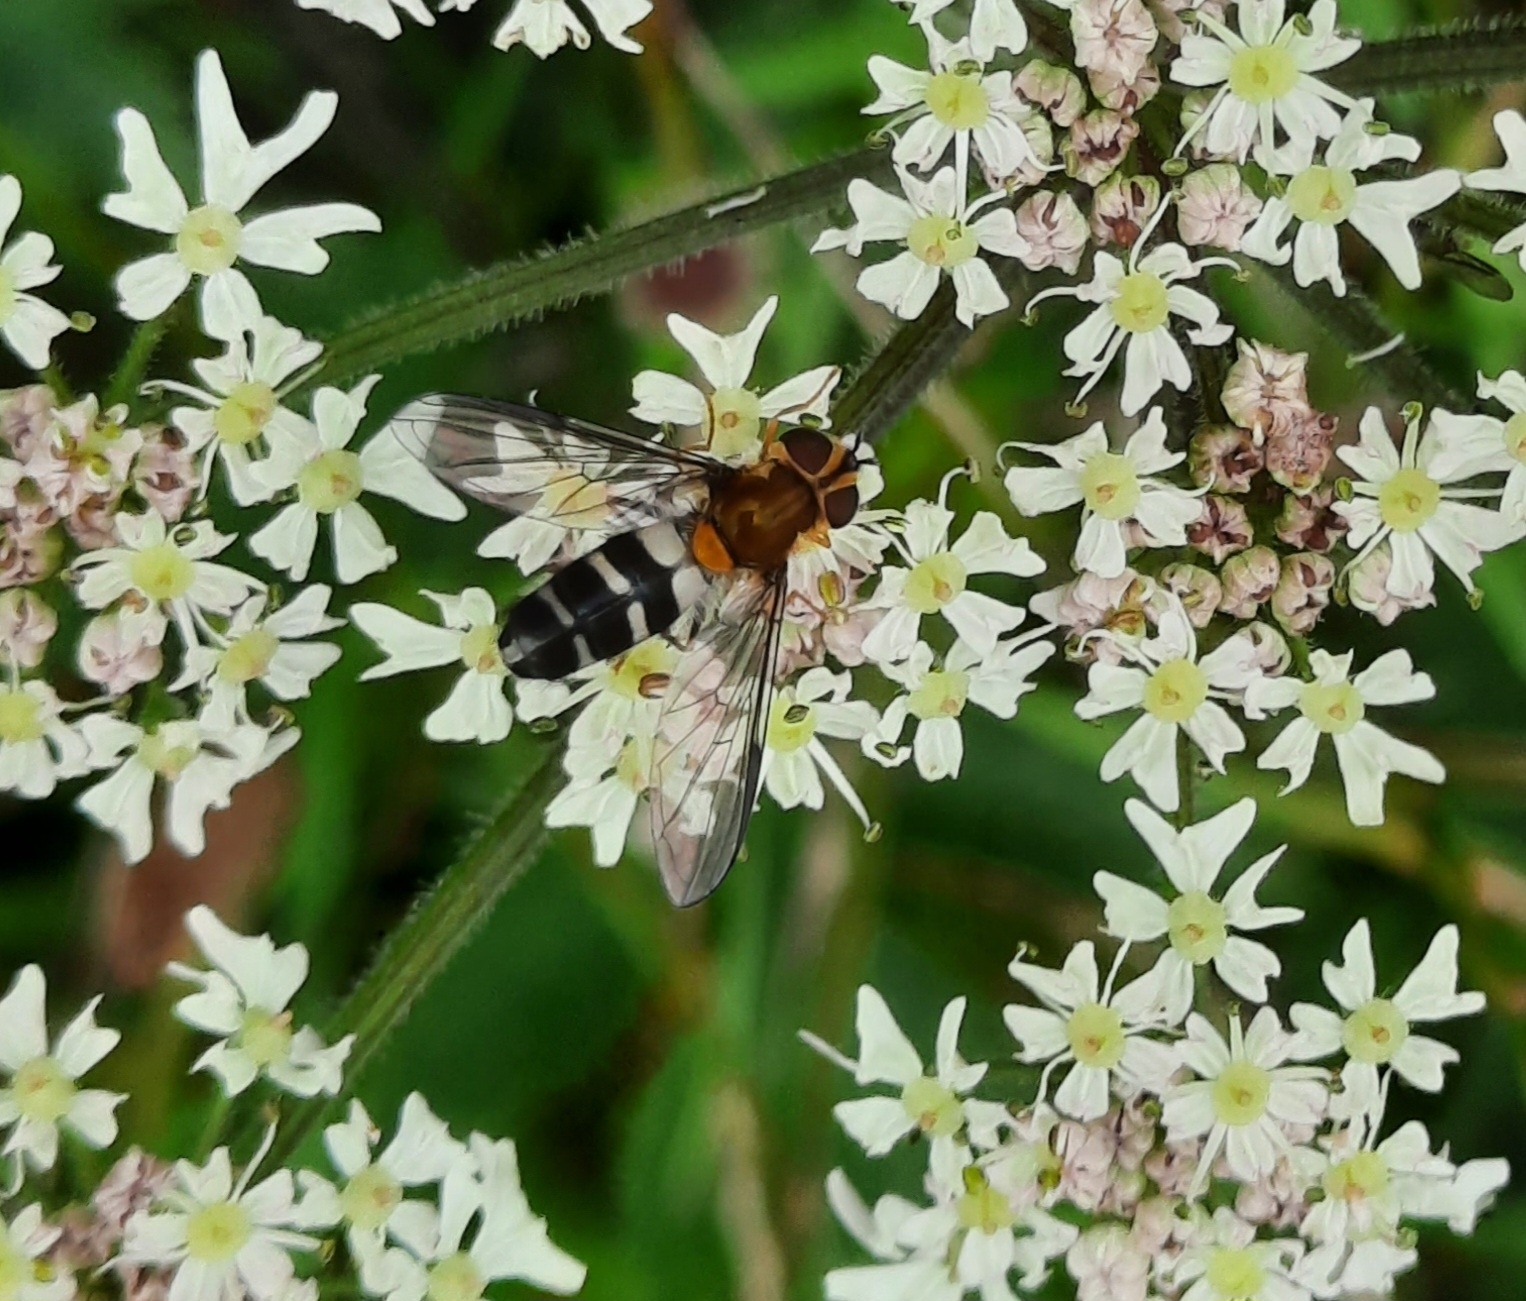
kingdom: Animalia
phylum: Arthropoda
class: Insecta
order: Diptera
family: Syrphidae
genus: Leucozona
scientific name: Leucozona glaucia
